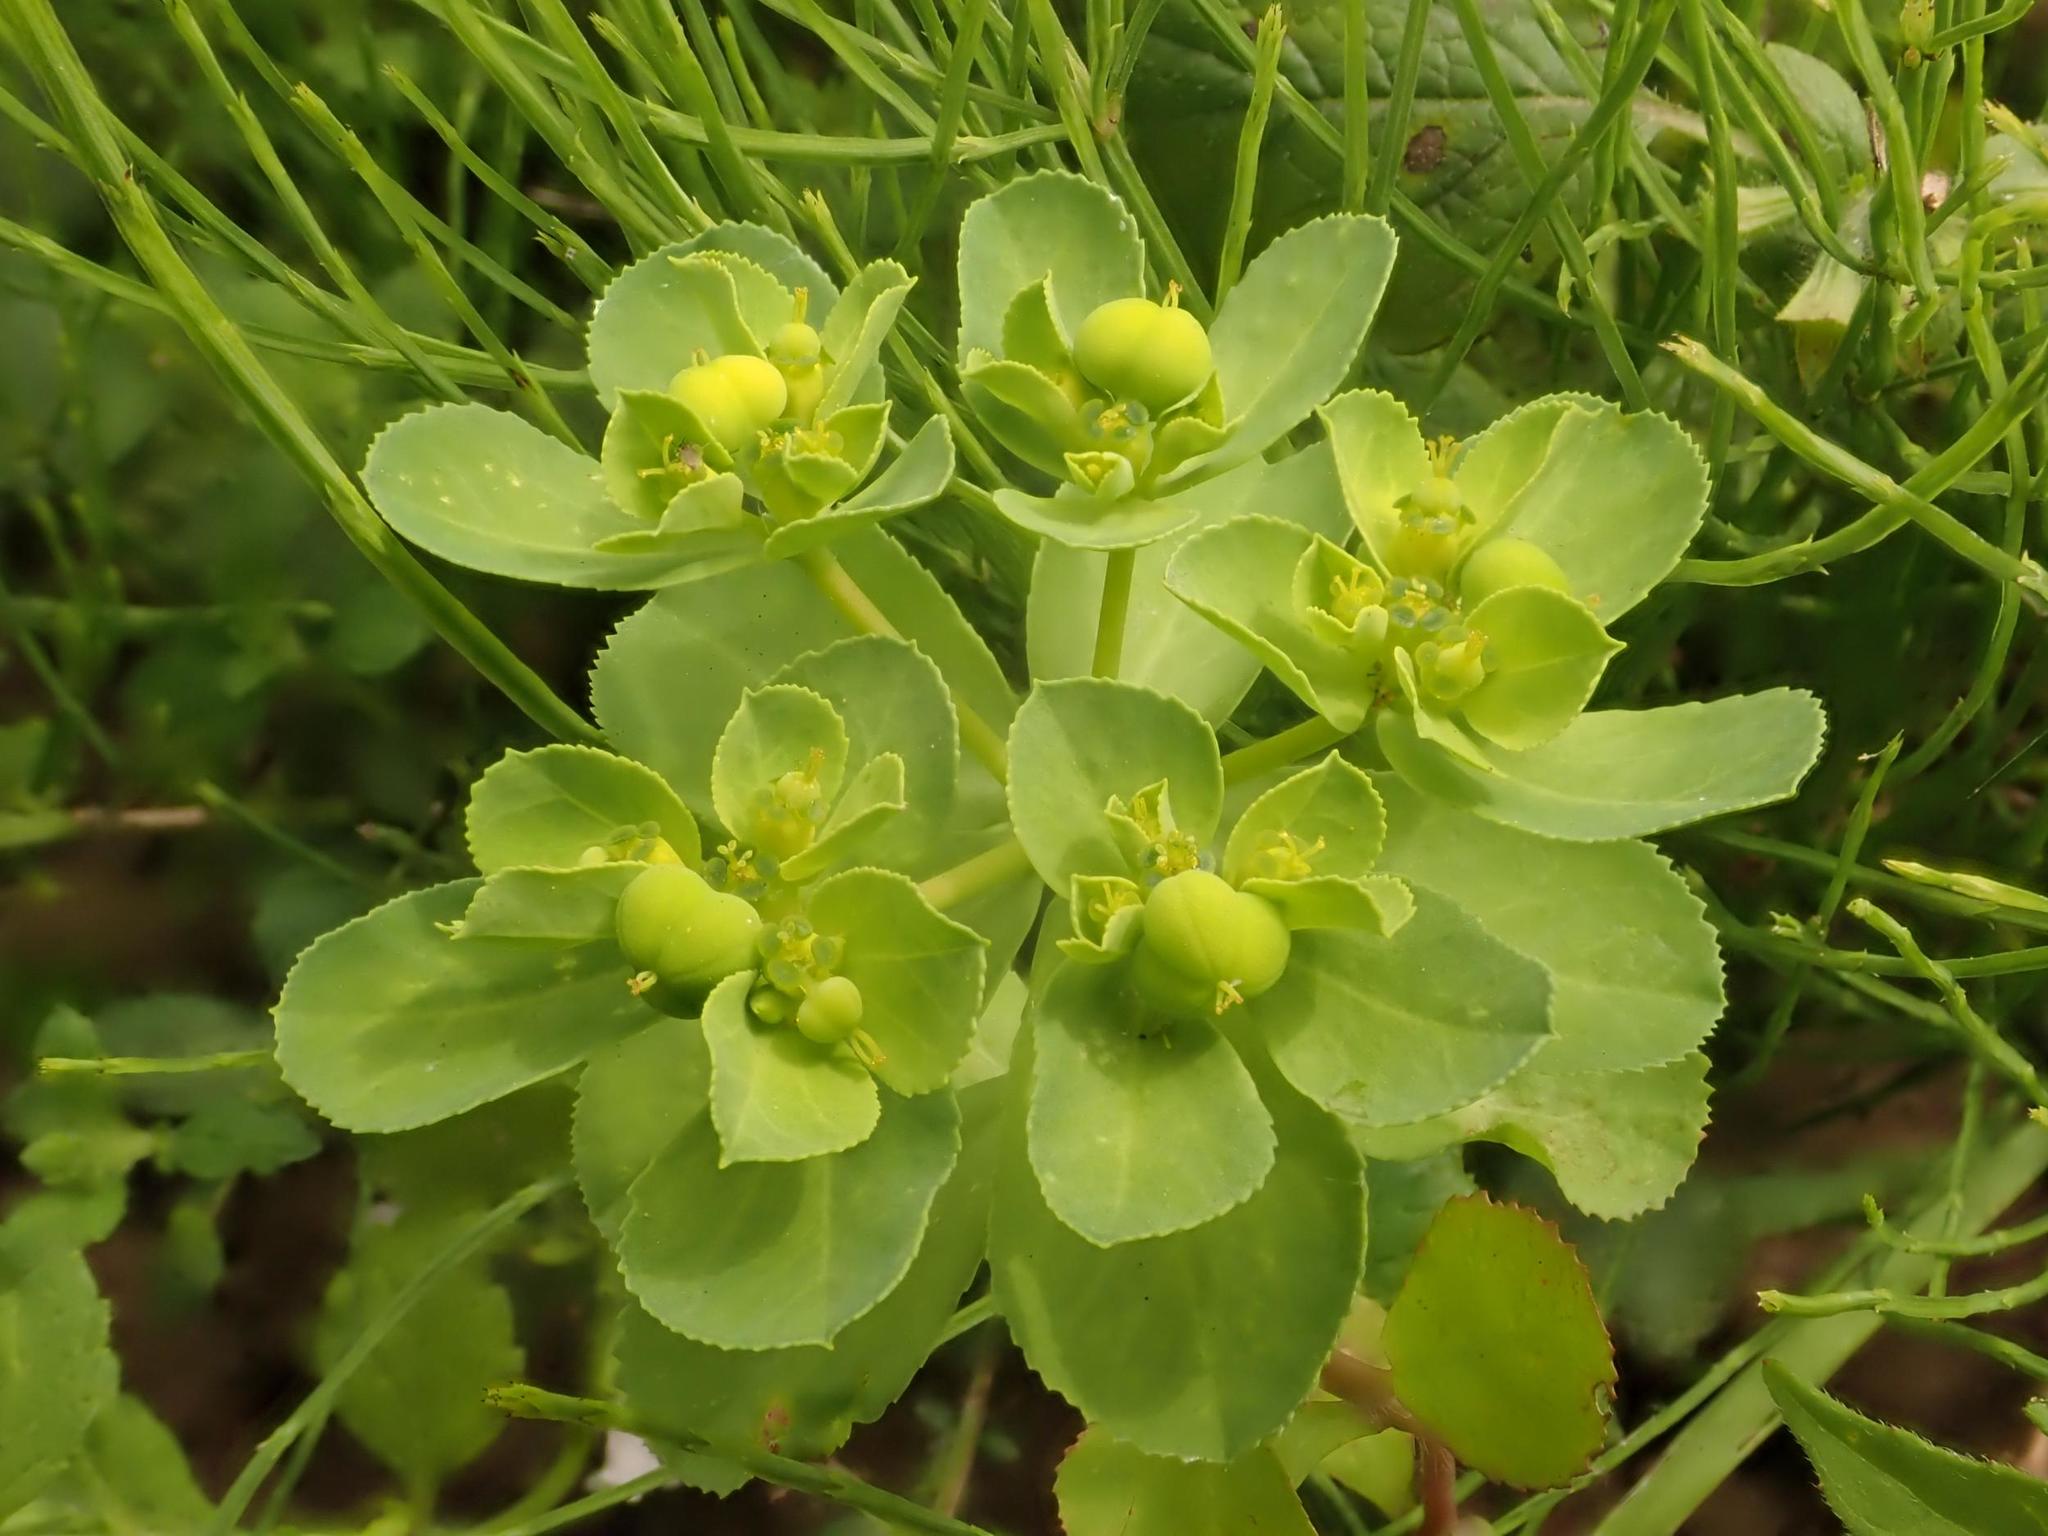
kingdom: Plantae
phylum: Tracheophyta
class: Magnoliopsida
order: Malpighiales
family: Euphorbiaceae
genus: Euphorbia
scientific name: Euphorbia helioscopia
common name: Sun spurge
